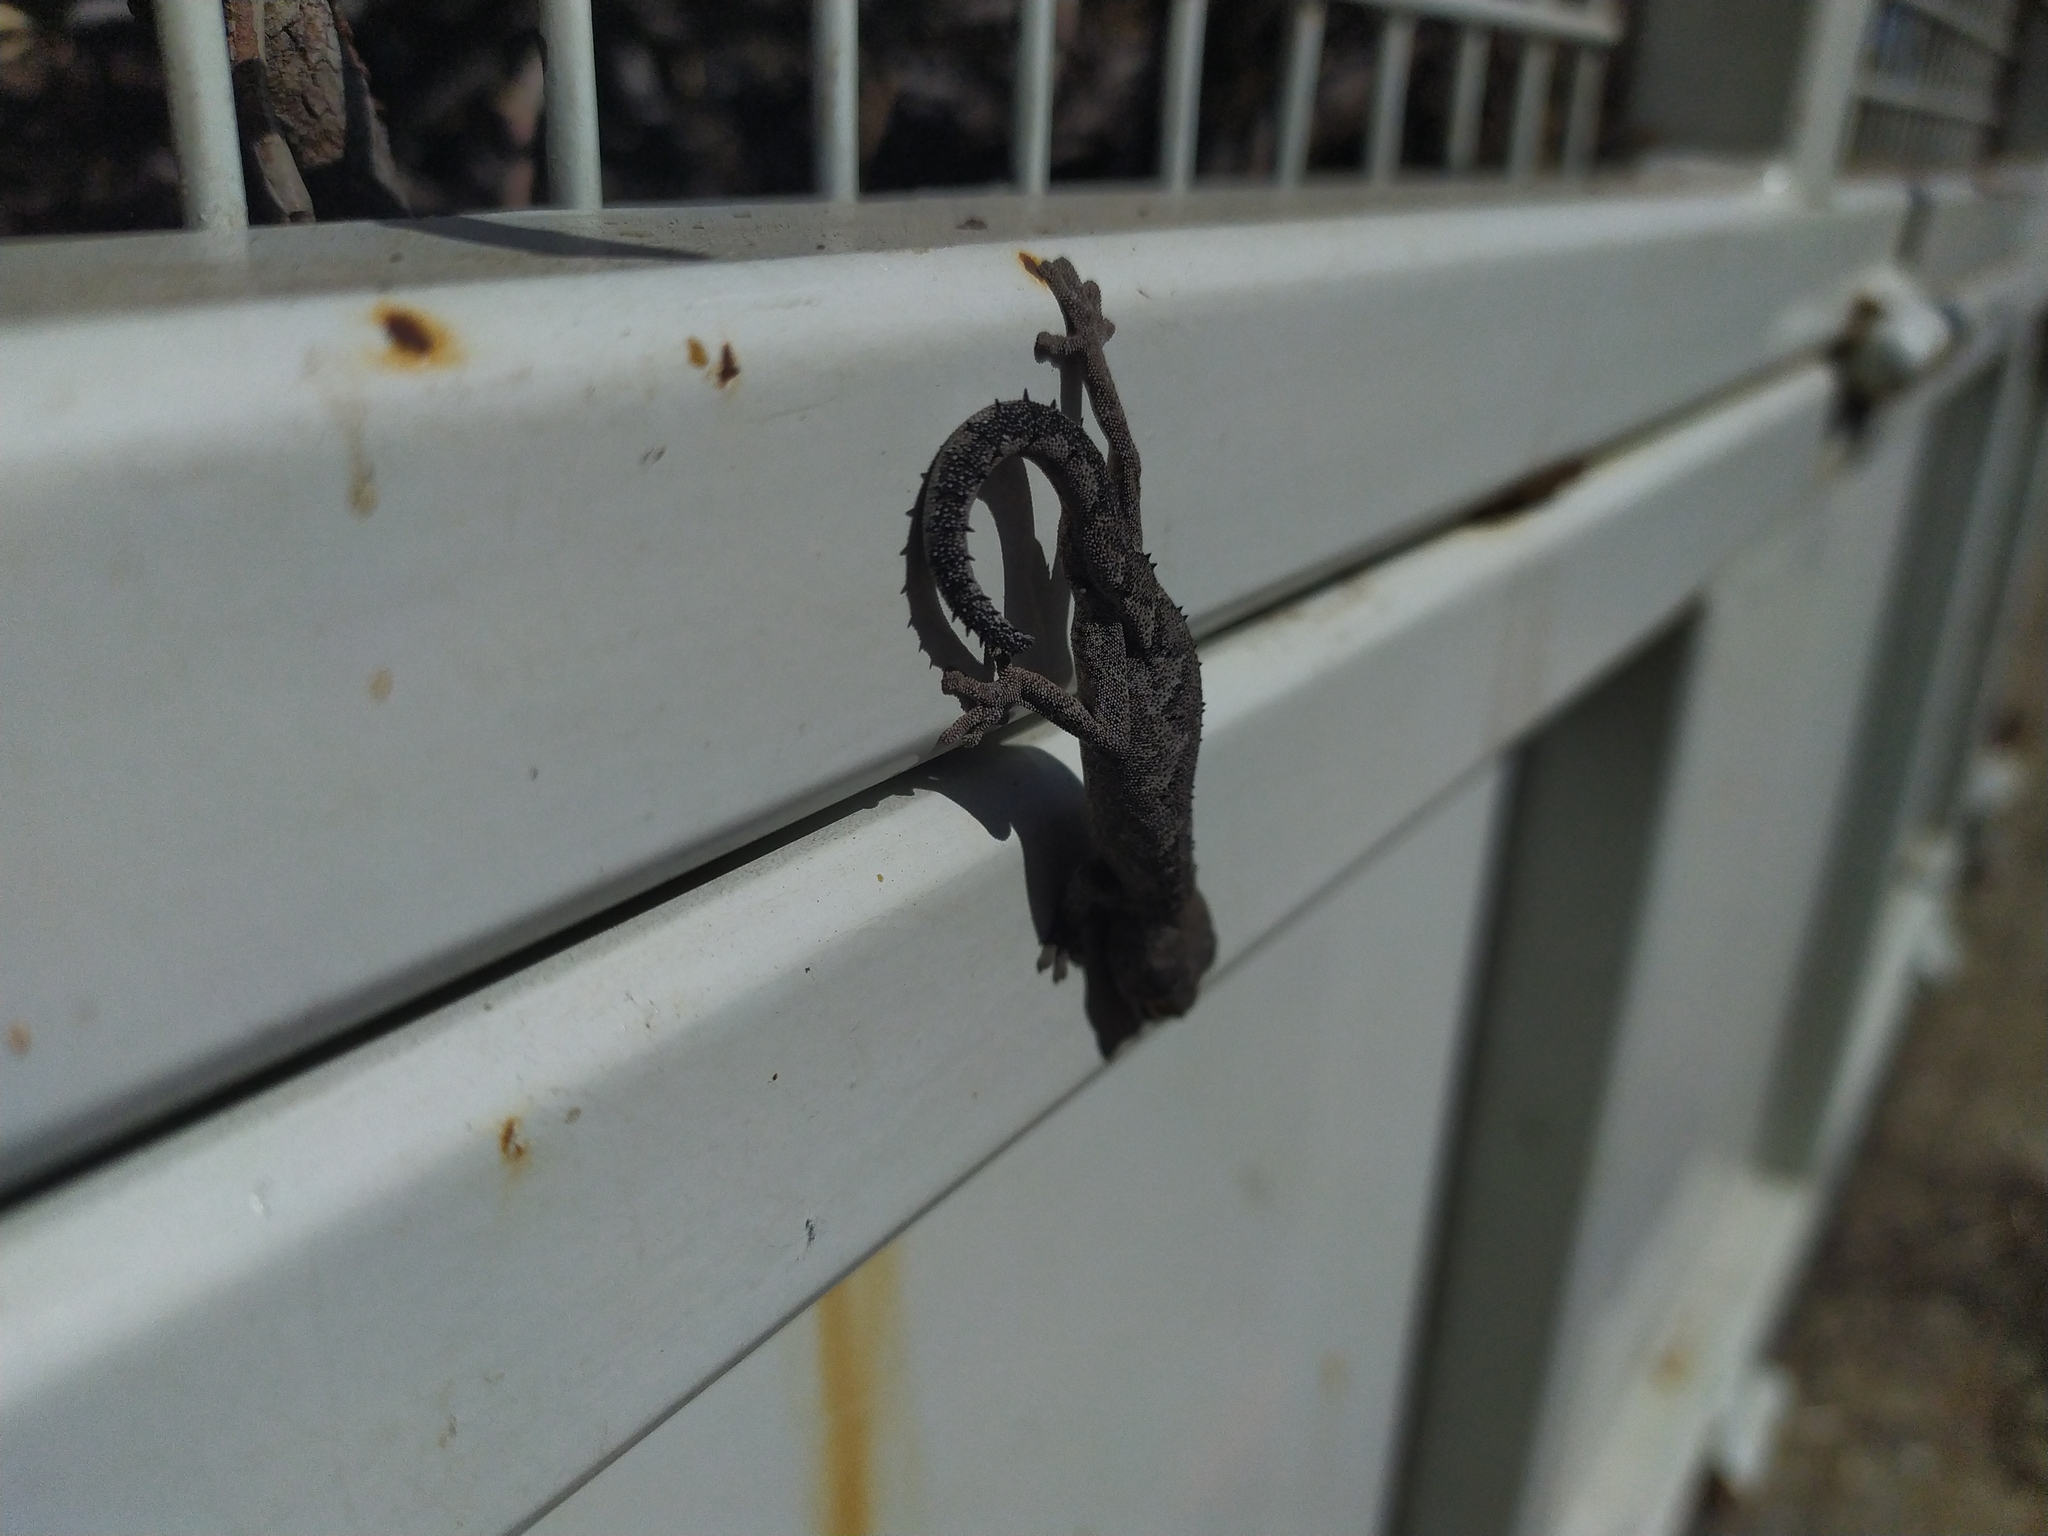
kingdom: Animalia
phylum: Chordata
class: Squamata
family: Diplodactylidae
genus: Strophurus
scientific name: Strophurus spinigerus
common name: Soft spiny-tailed gecko
